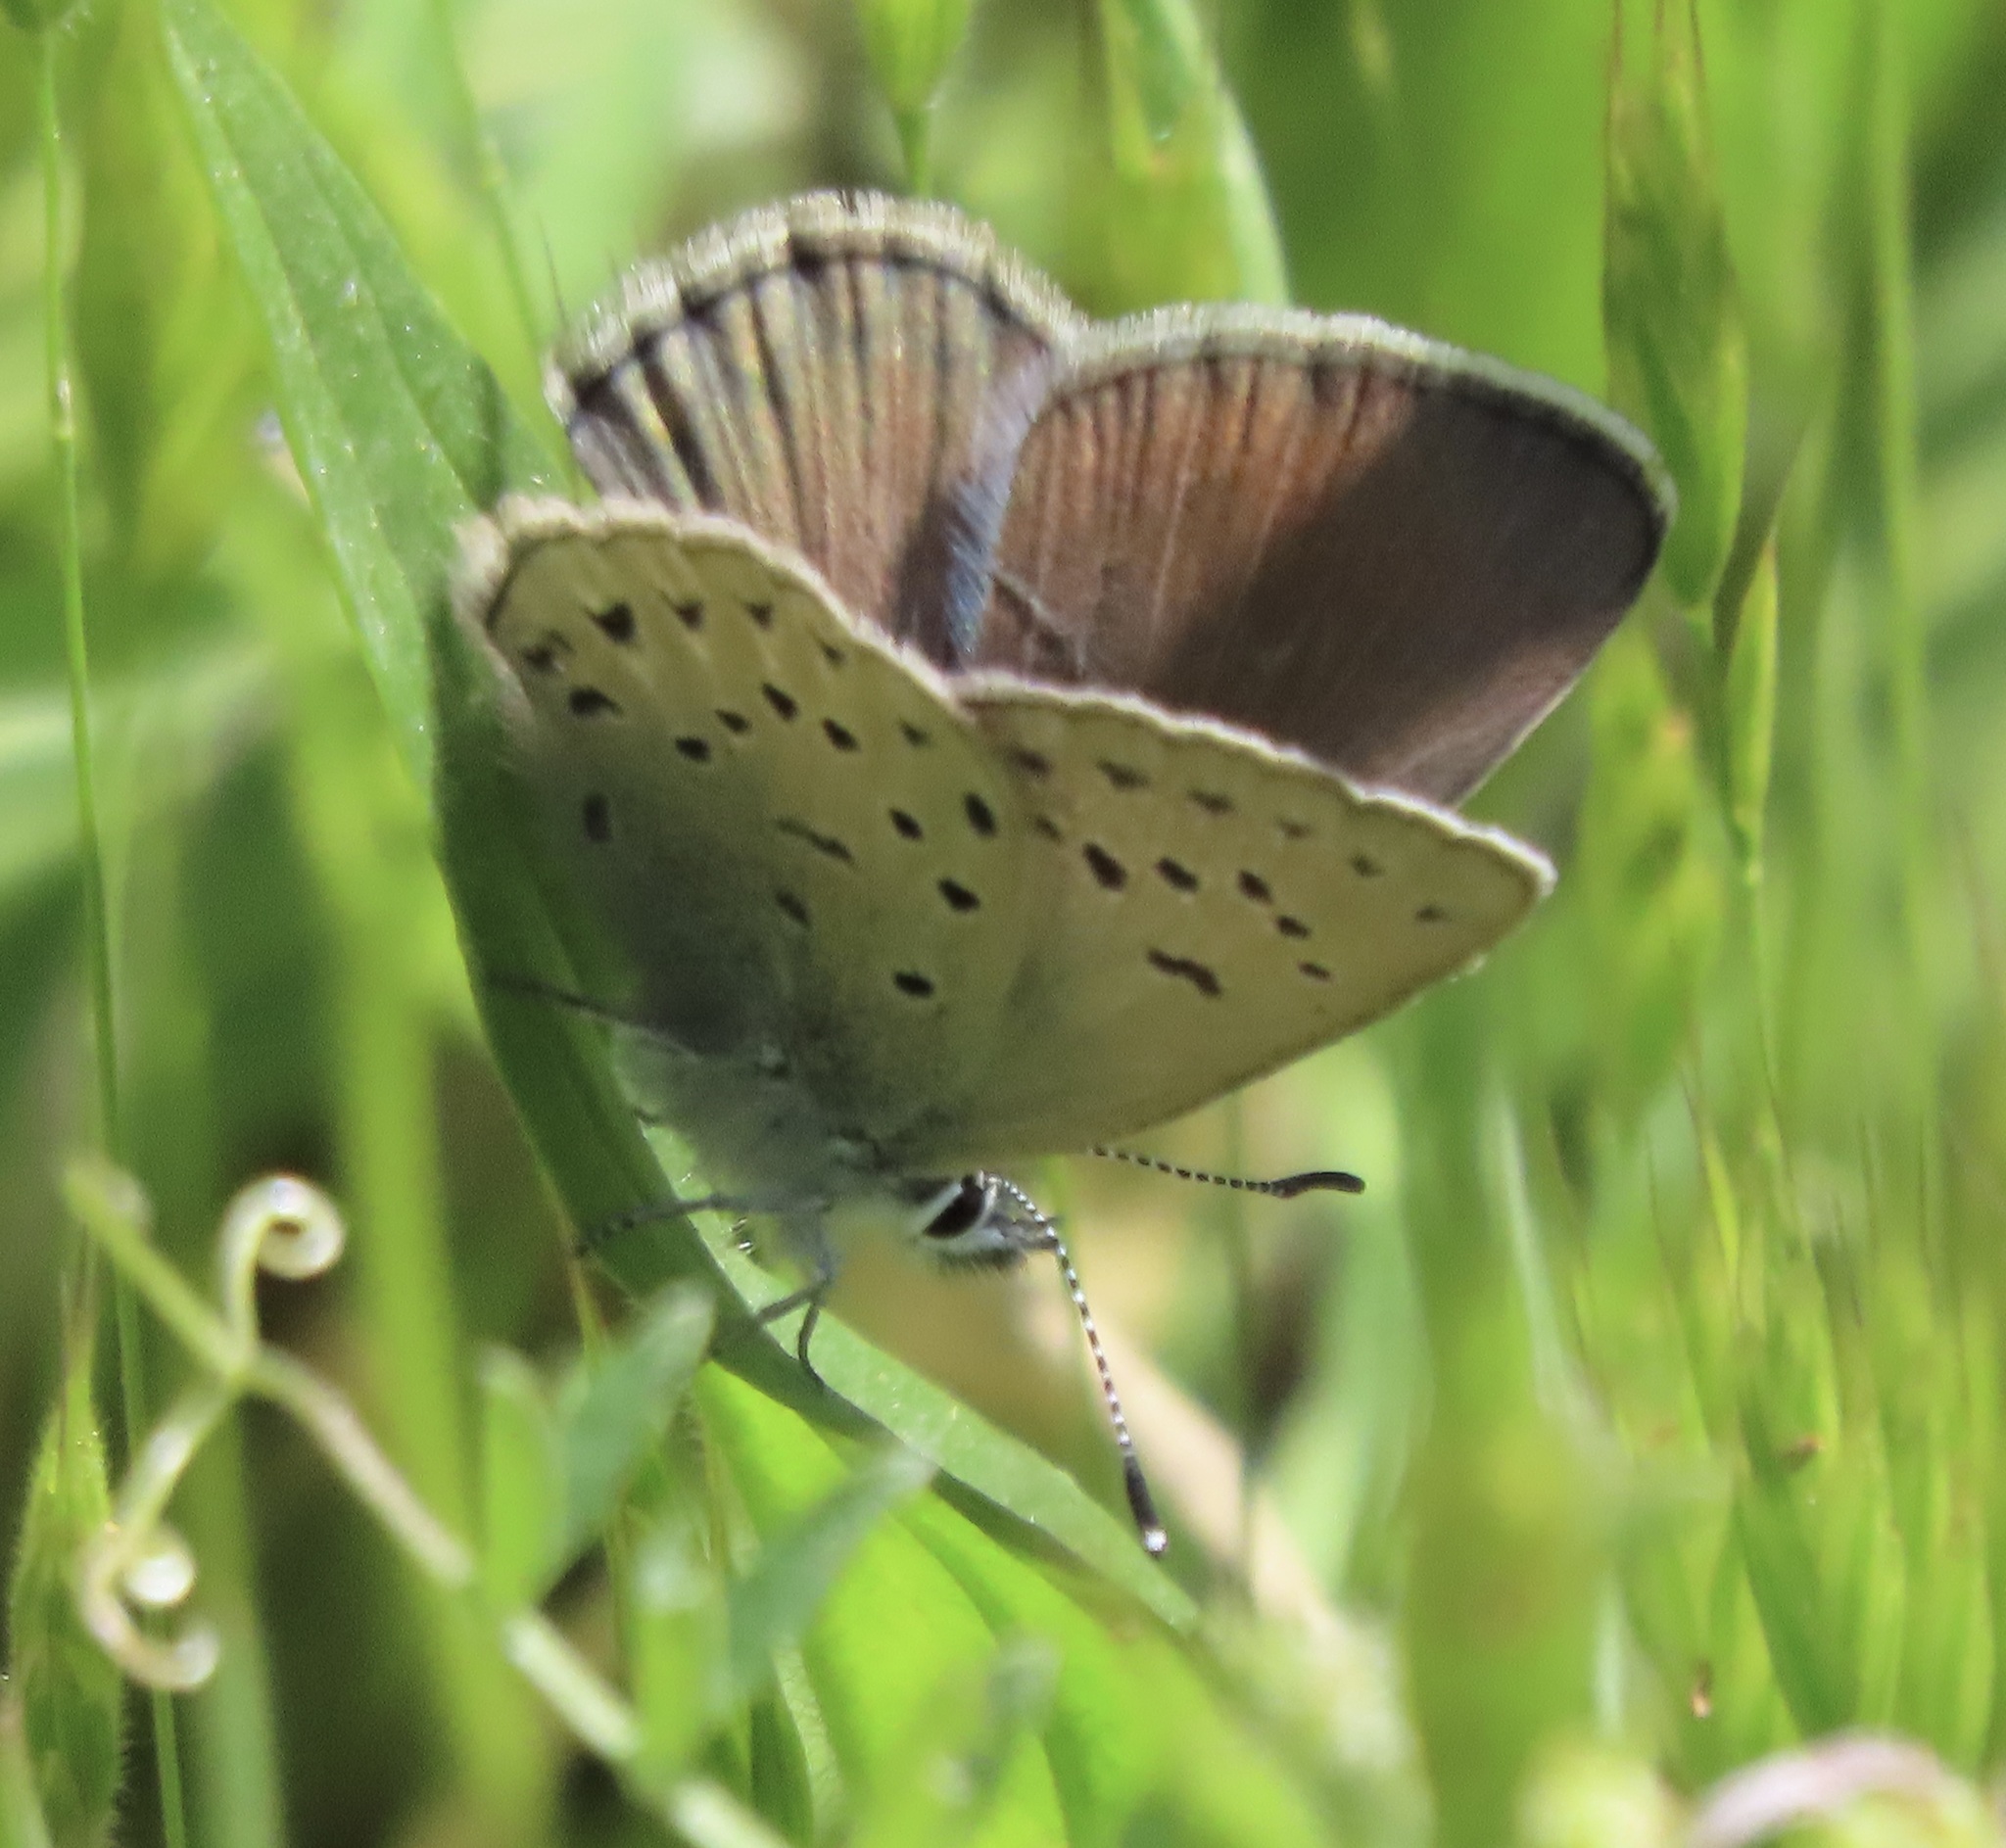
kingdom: Animalia
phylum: Arthropoda
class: Insecta
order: Lepidoptera
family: Lycaenidae
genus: Icaricia
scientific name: Icaricia icarioides
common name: Boisduval's blue
